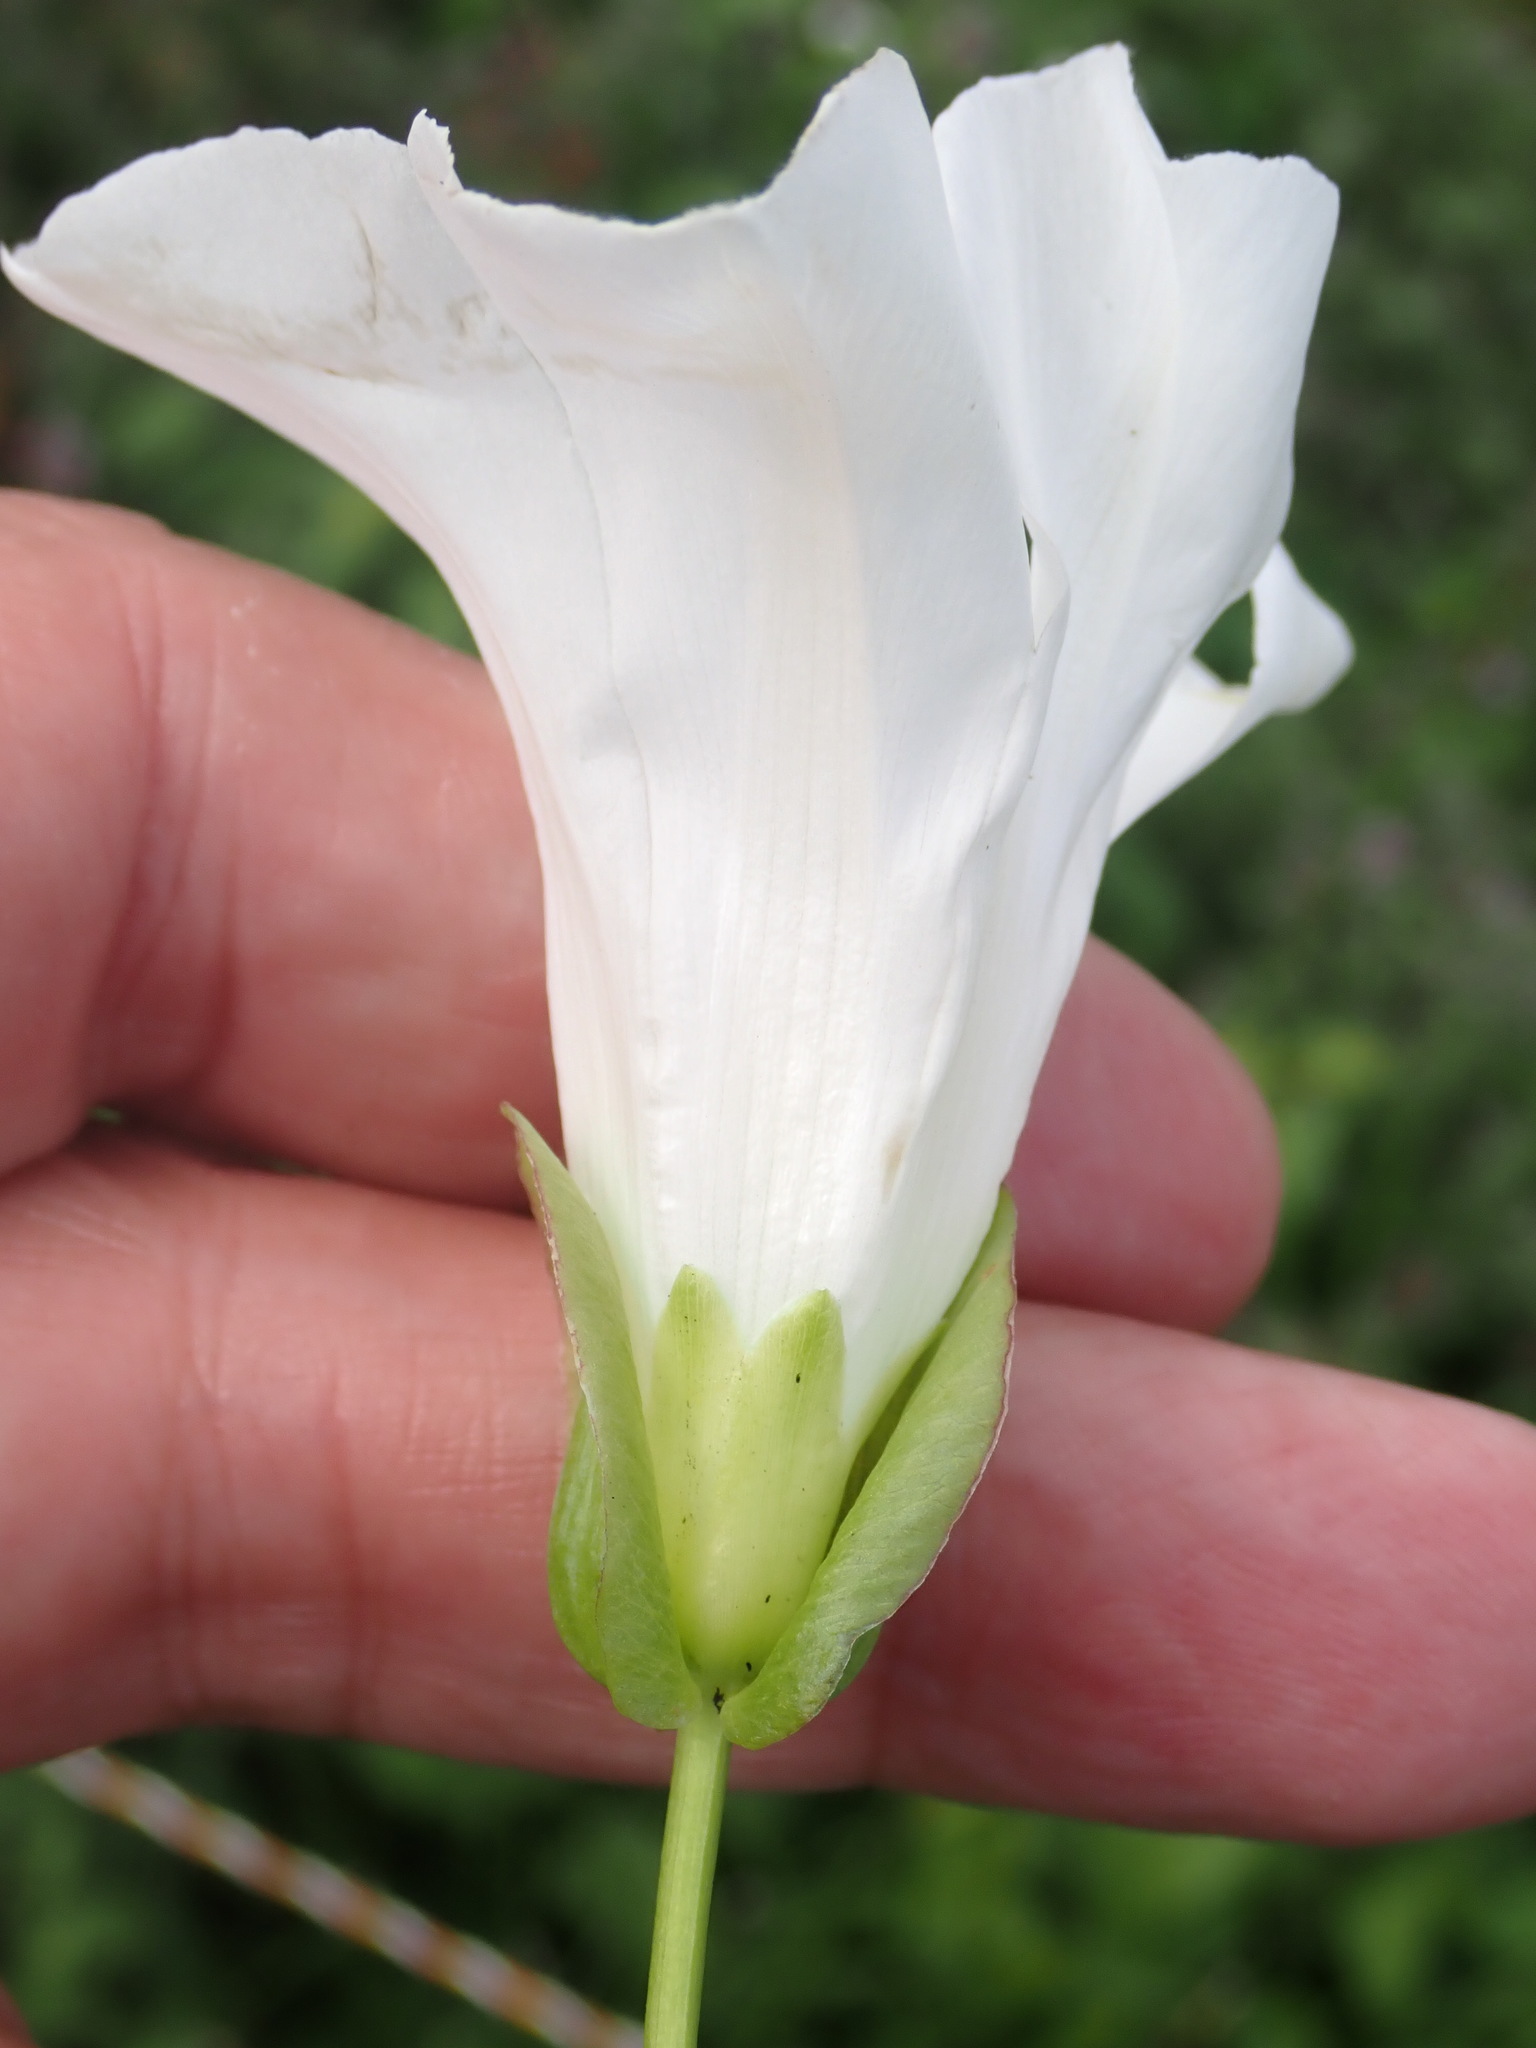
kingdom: Plantae
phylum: Tracheophyta
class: Magnoliopsida
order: Solanales
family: Convolvulaceae
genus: Calystegia
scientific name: Calystegia sepium
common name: Hedge bindweed
